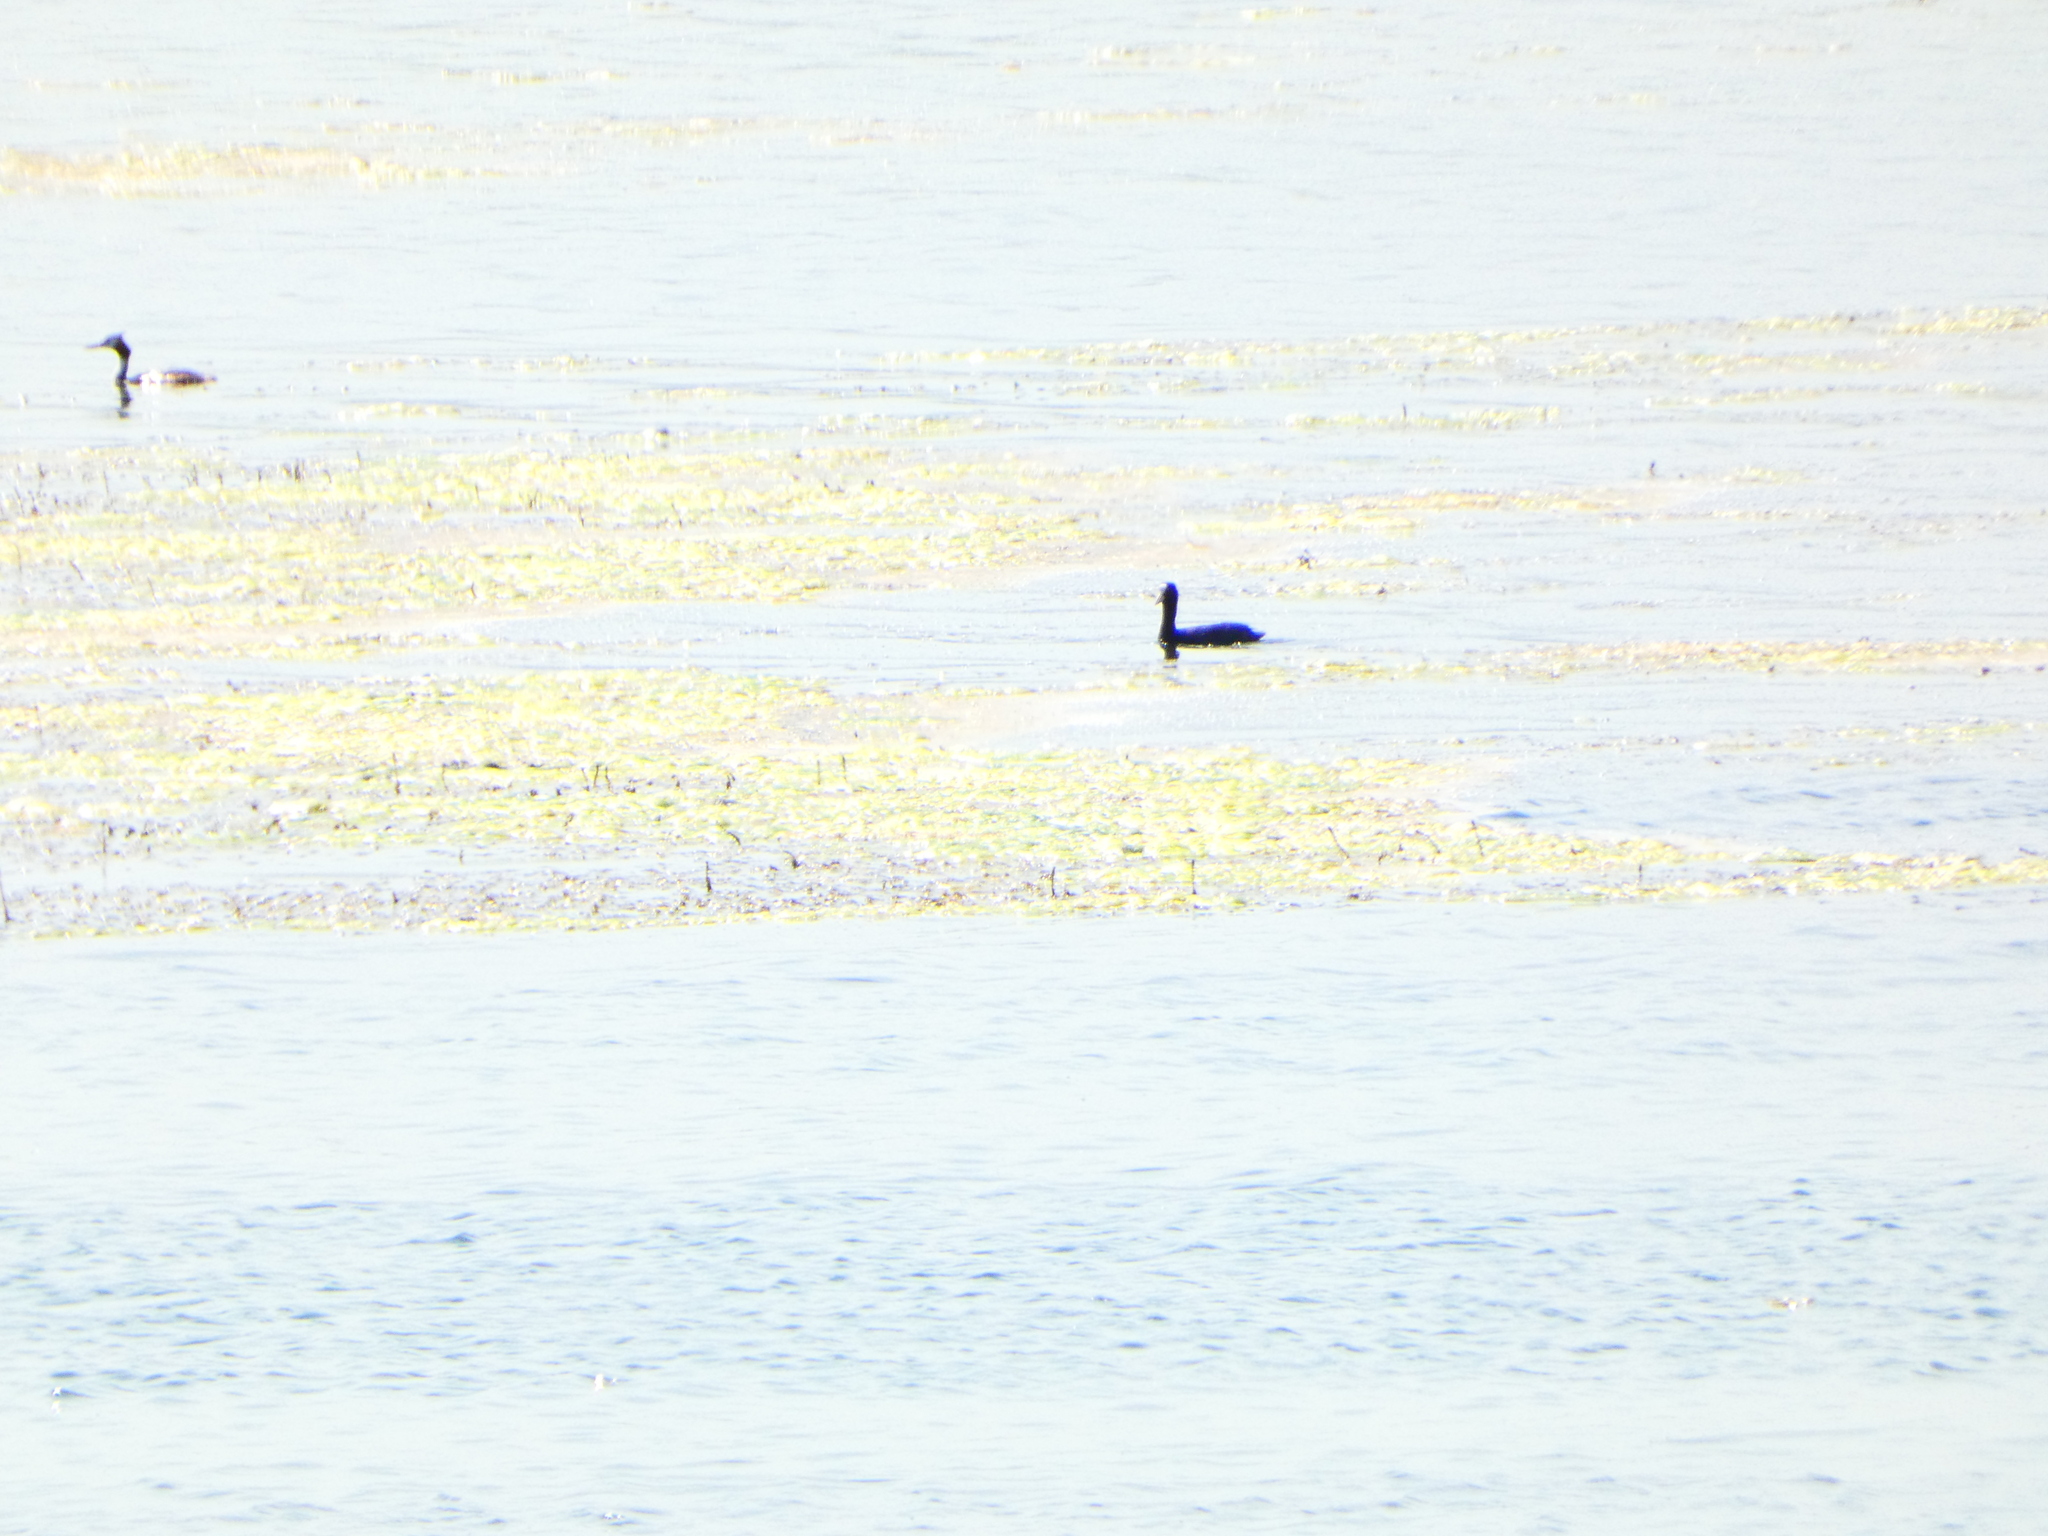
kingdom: Animalia
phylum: Chordata
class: Aves
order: Gruiformes
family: Rallidae
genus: Fulica
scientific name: Fulica atra
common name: Eurasian coot
